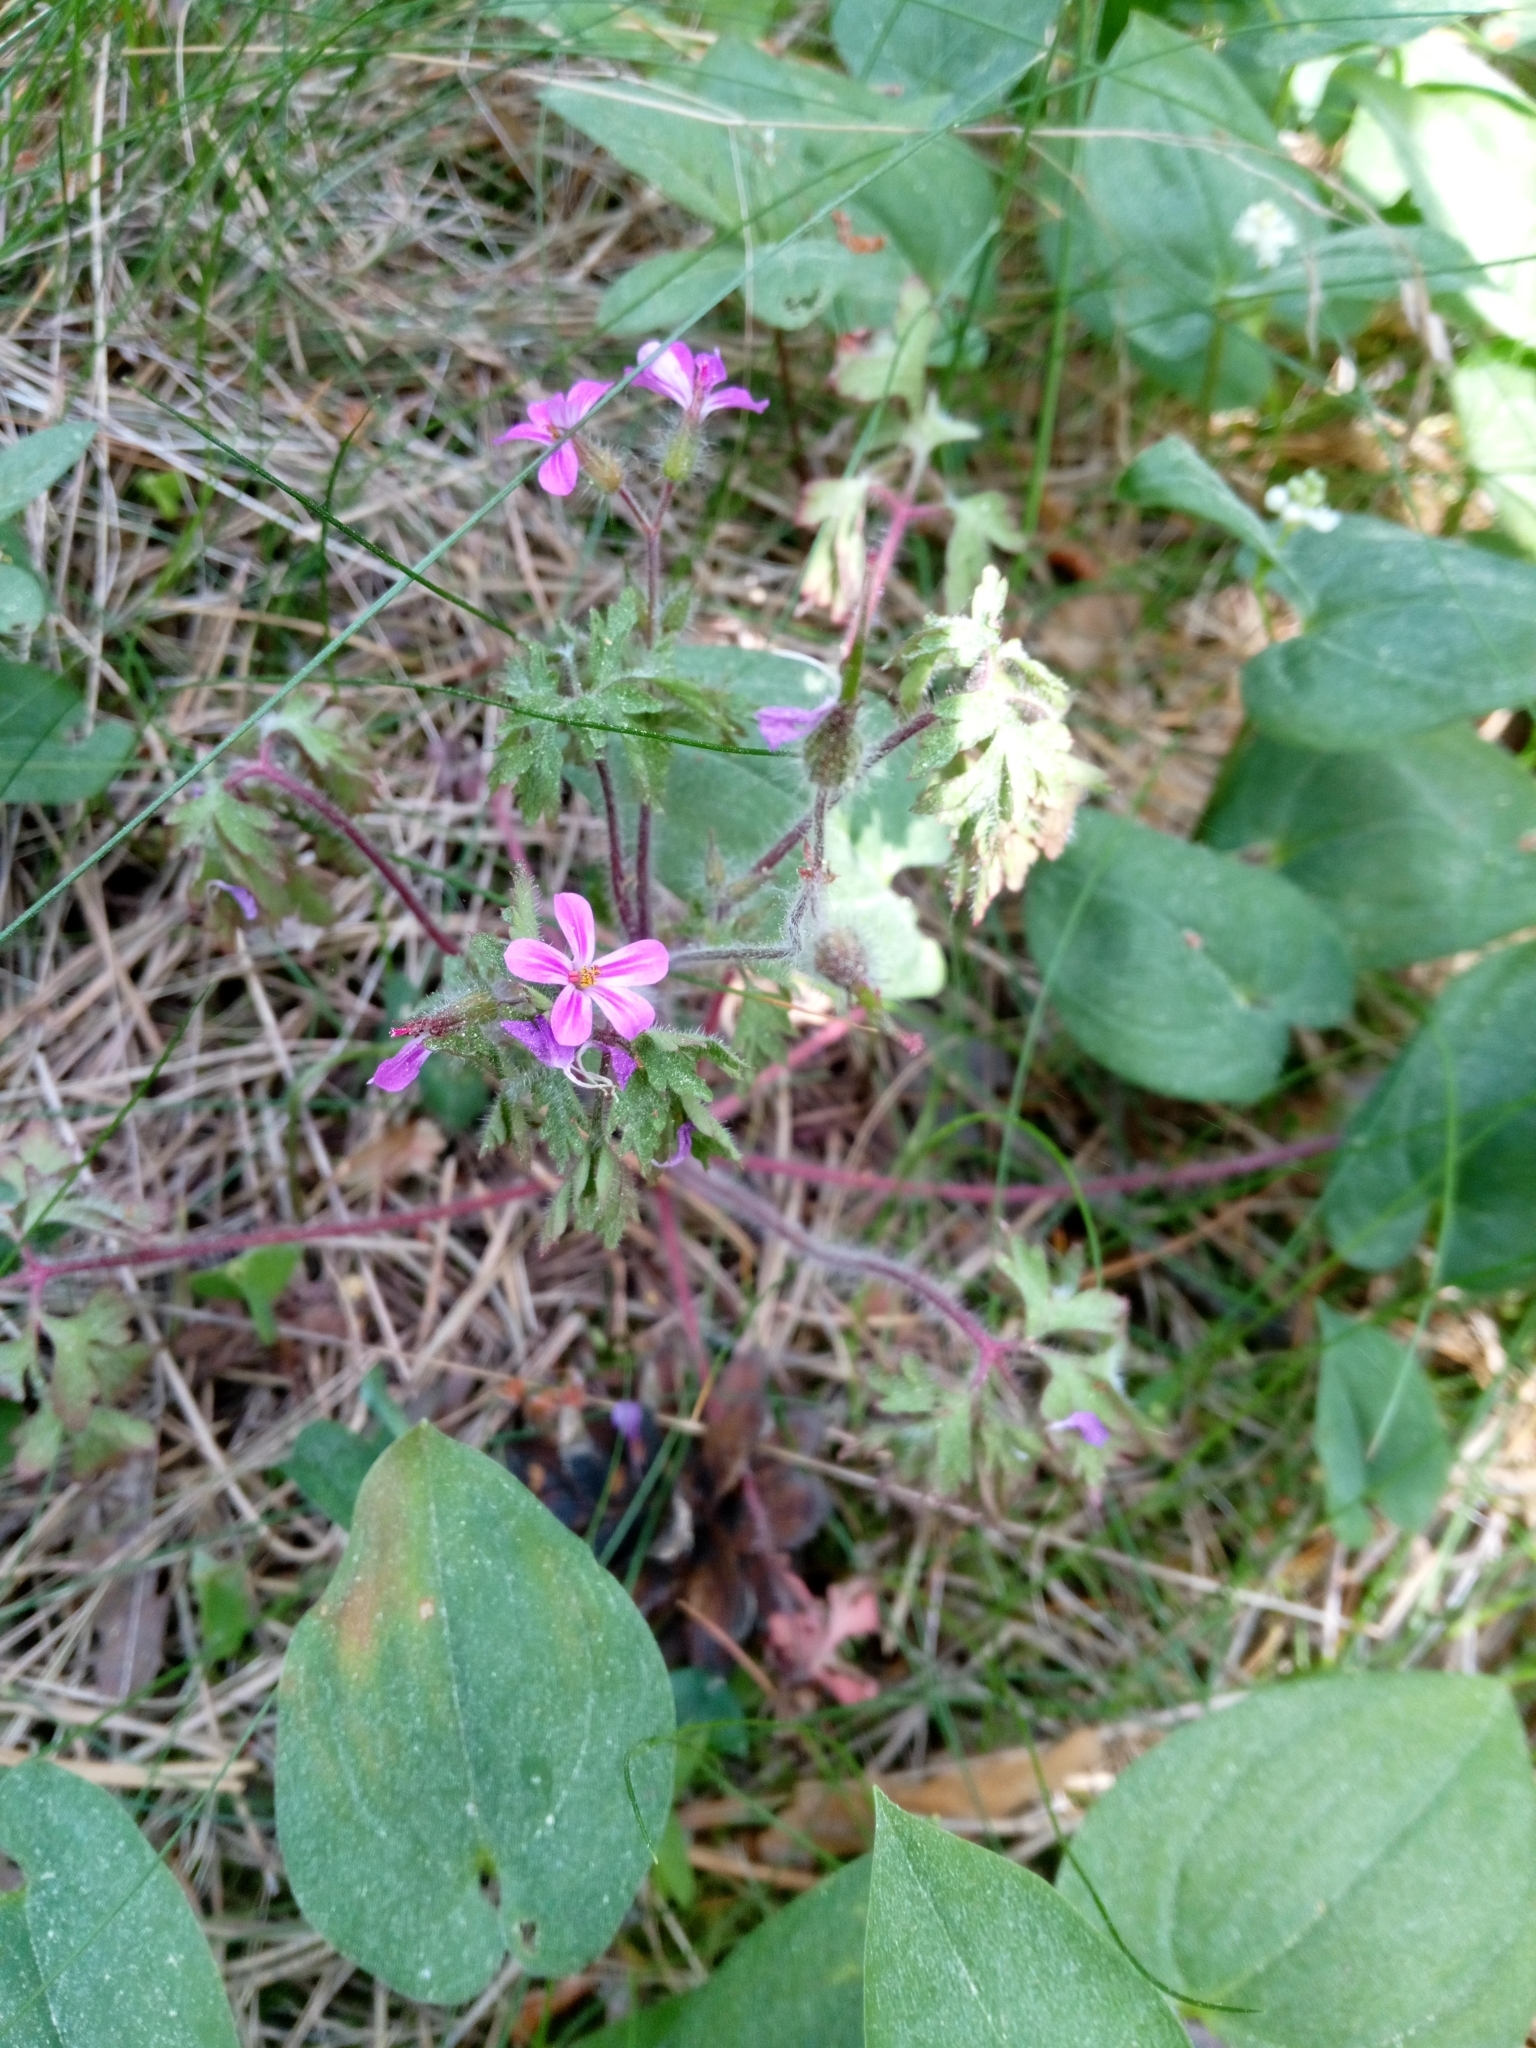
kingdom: Plantae
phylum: Tracheophyta
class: Magnoliopsida
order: Geraniales
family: Geraniaceae
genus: Geranium
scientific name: Geranium robertianum
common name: Herb-robert
